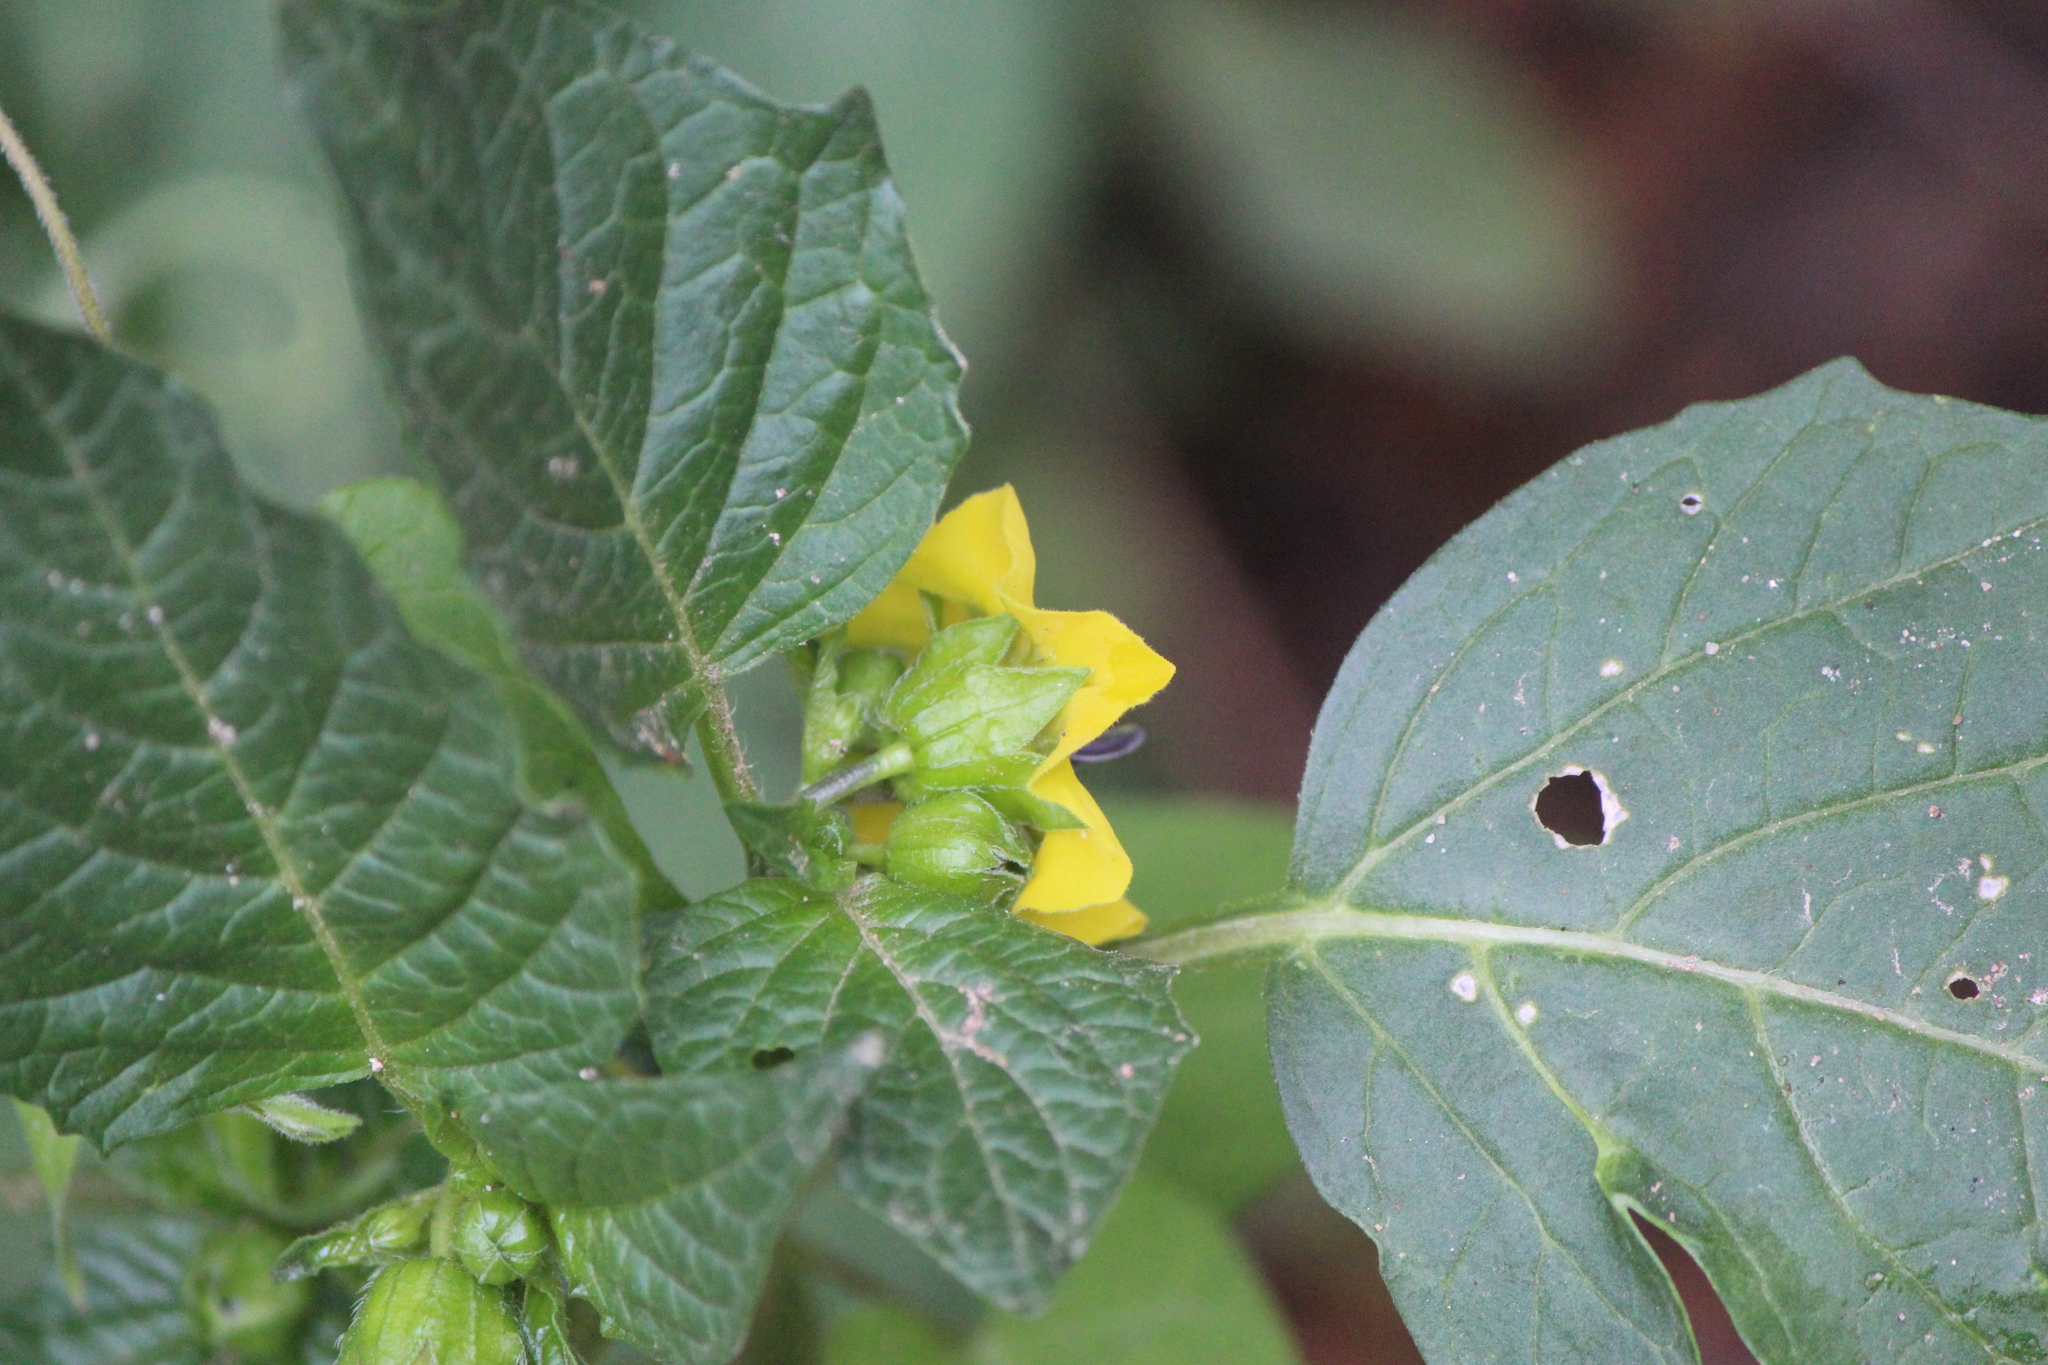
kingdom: Plantae
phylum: Tracheophyta
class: Magnoliopsida
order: Solanales
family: Solanaceae
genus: Physalis
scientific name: Physalis philadelphica
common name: Husk-tomato
